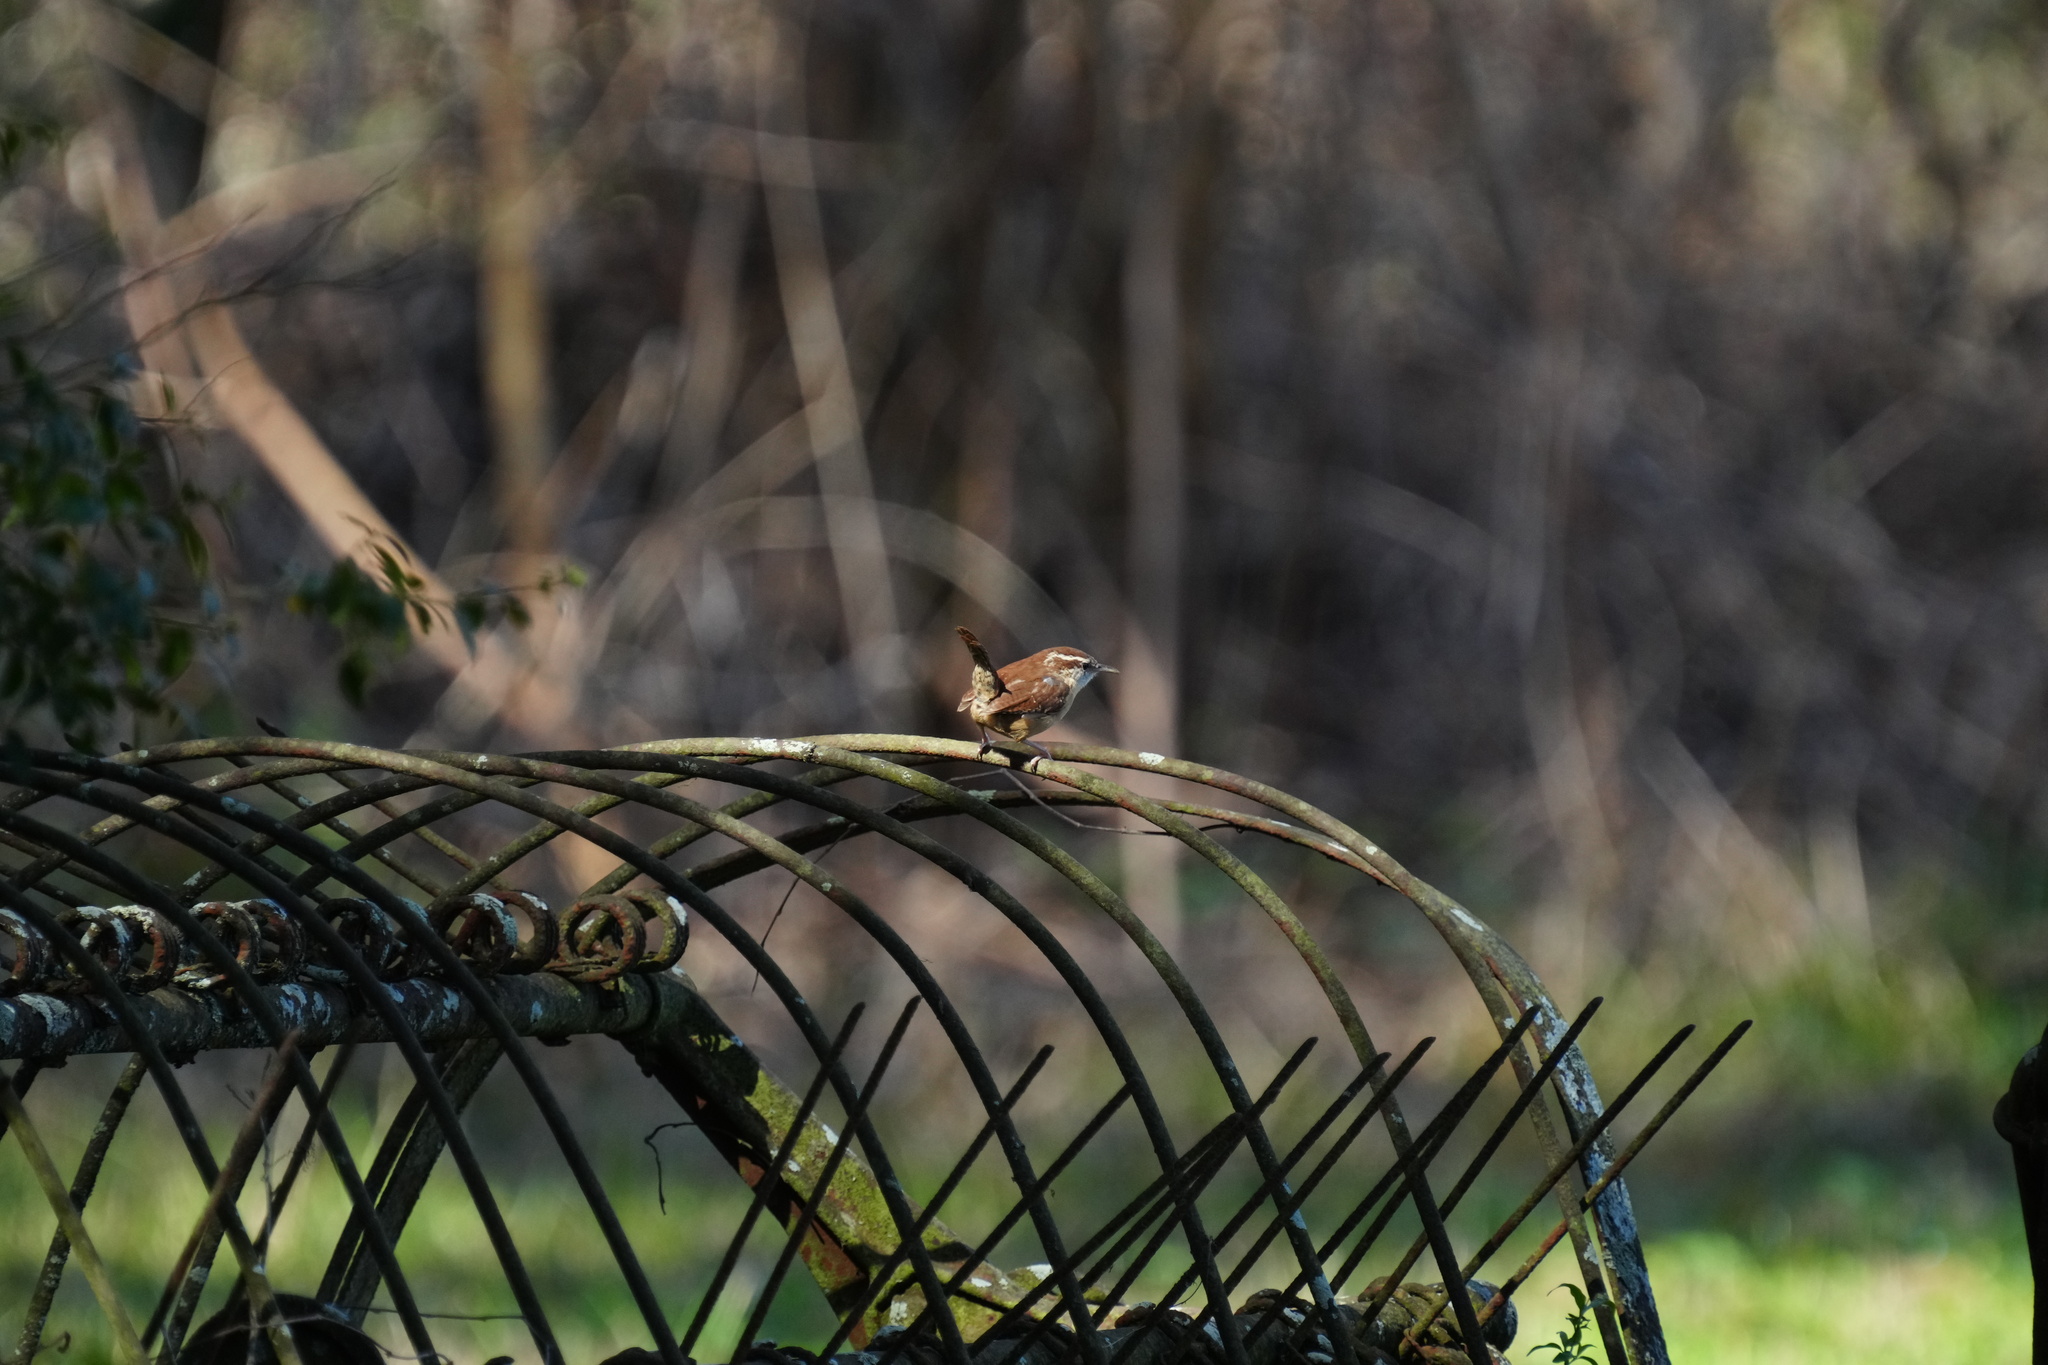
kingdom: Animalia
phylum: Chordata
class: Aves
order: Passeriformes
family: Troglodytidae
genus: Thryothorus
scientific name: Thryothorus ludovicianus
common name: Carolina wren
